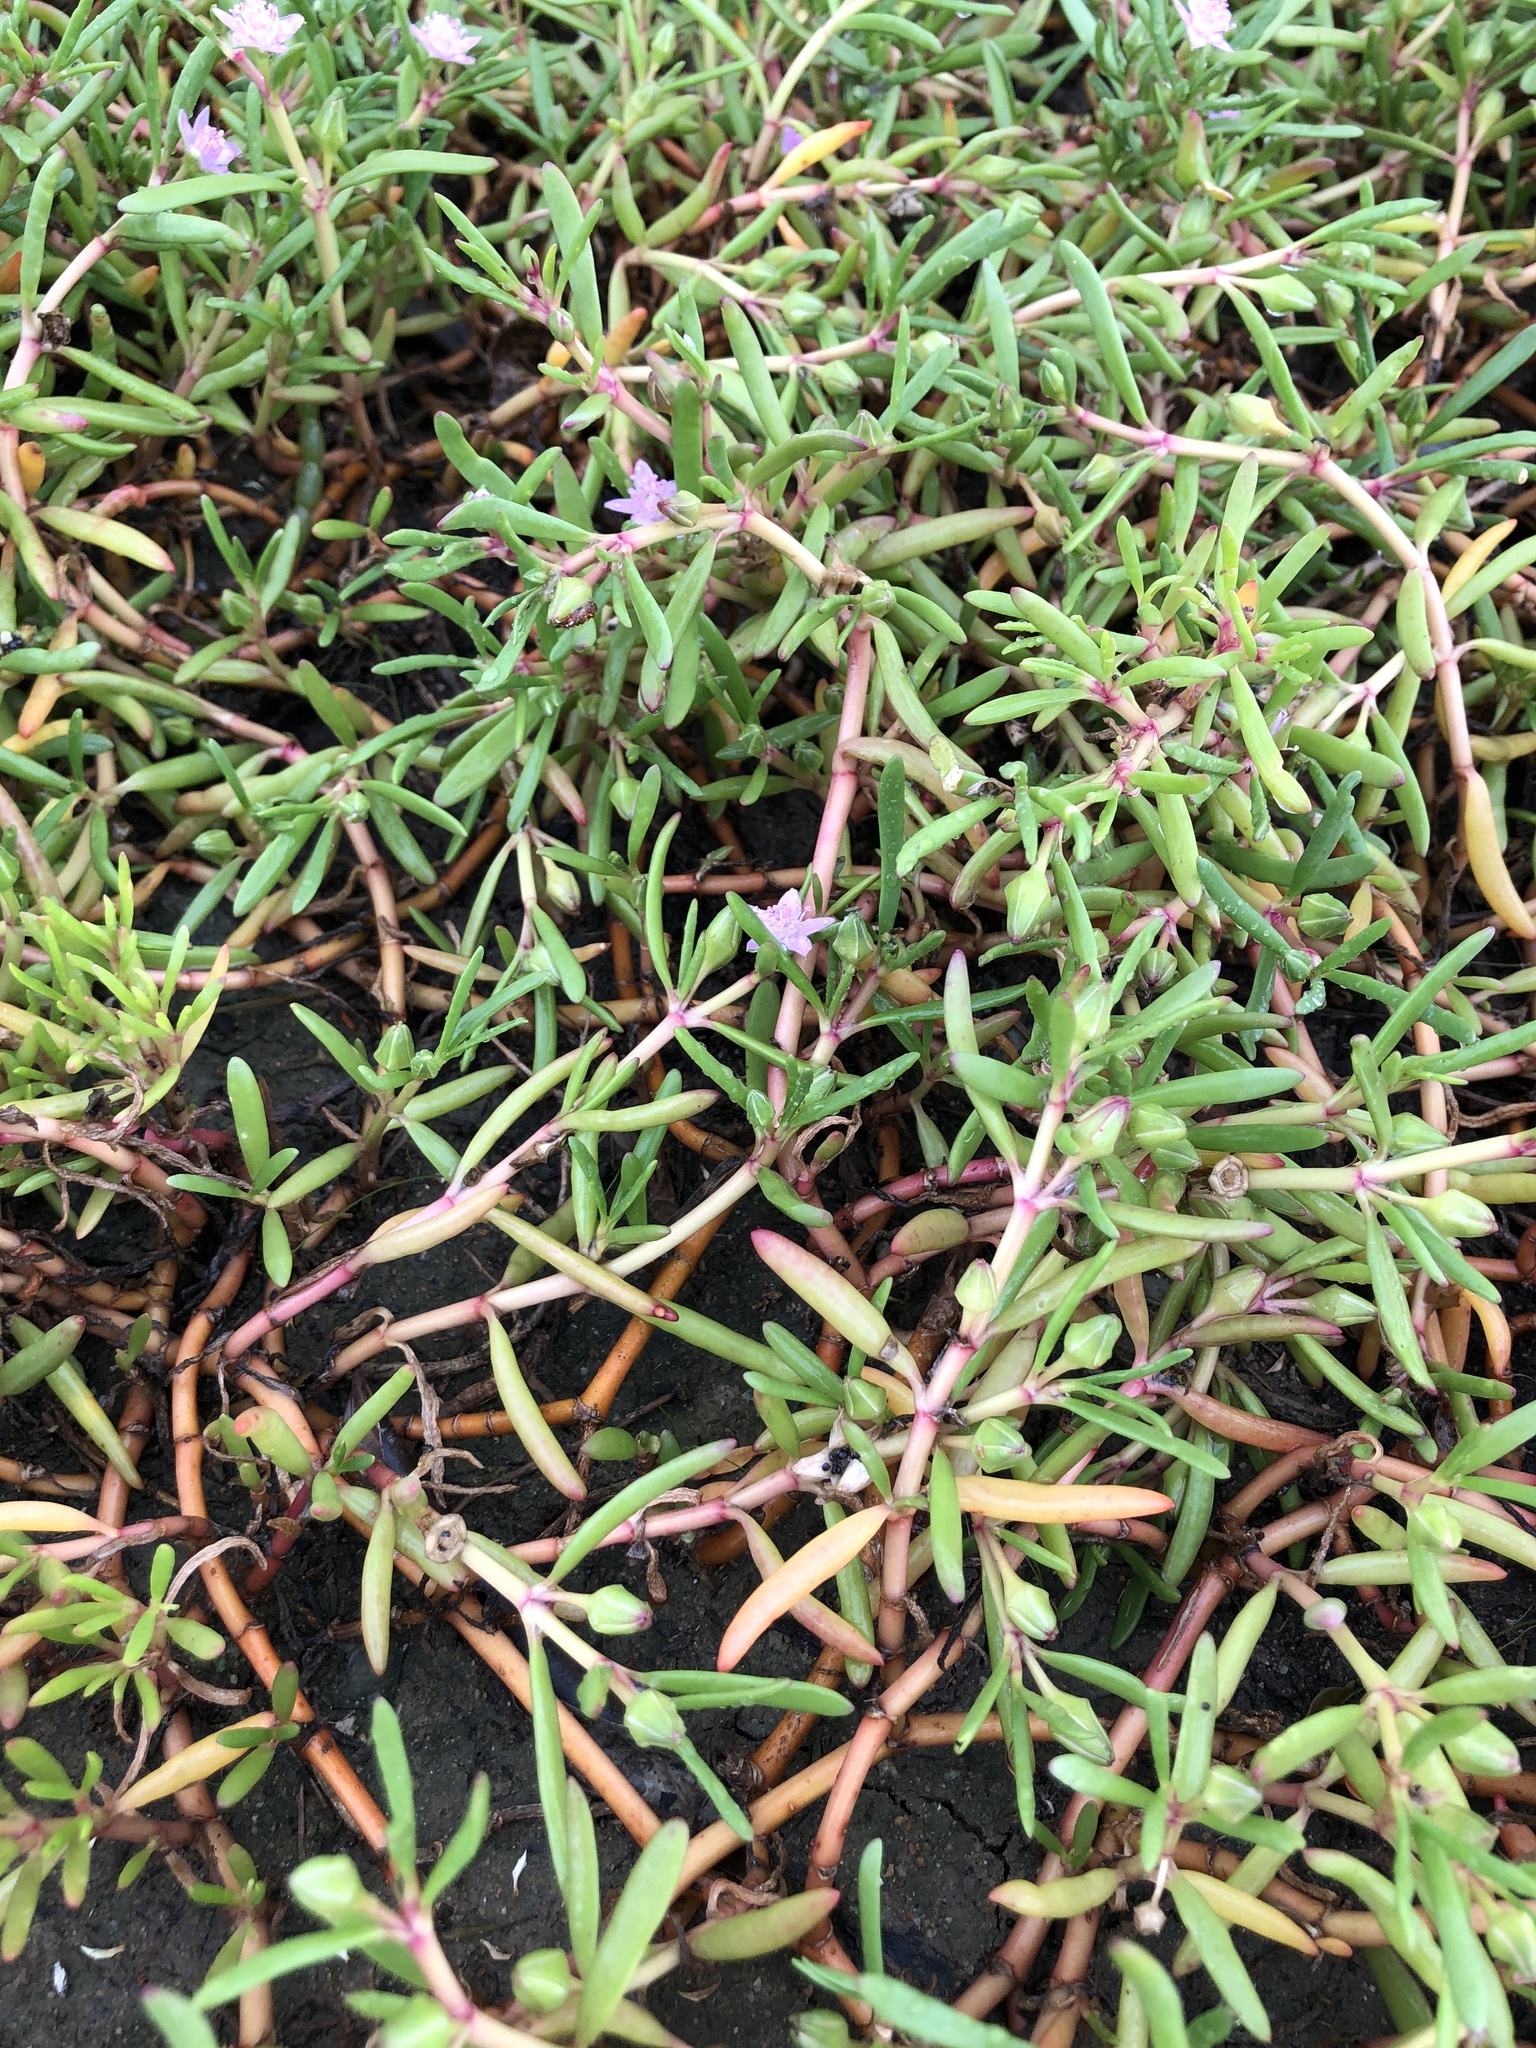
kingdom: Plantae
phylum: Tracheophyta
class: Magnoliopsida
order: Caryophyllales
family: Aizoaceae
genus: Sesuvium
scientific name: Sesuvium portulacastrum
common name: Sea-purslane
